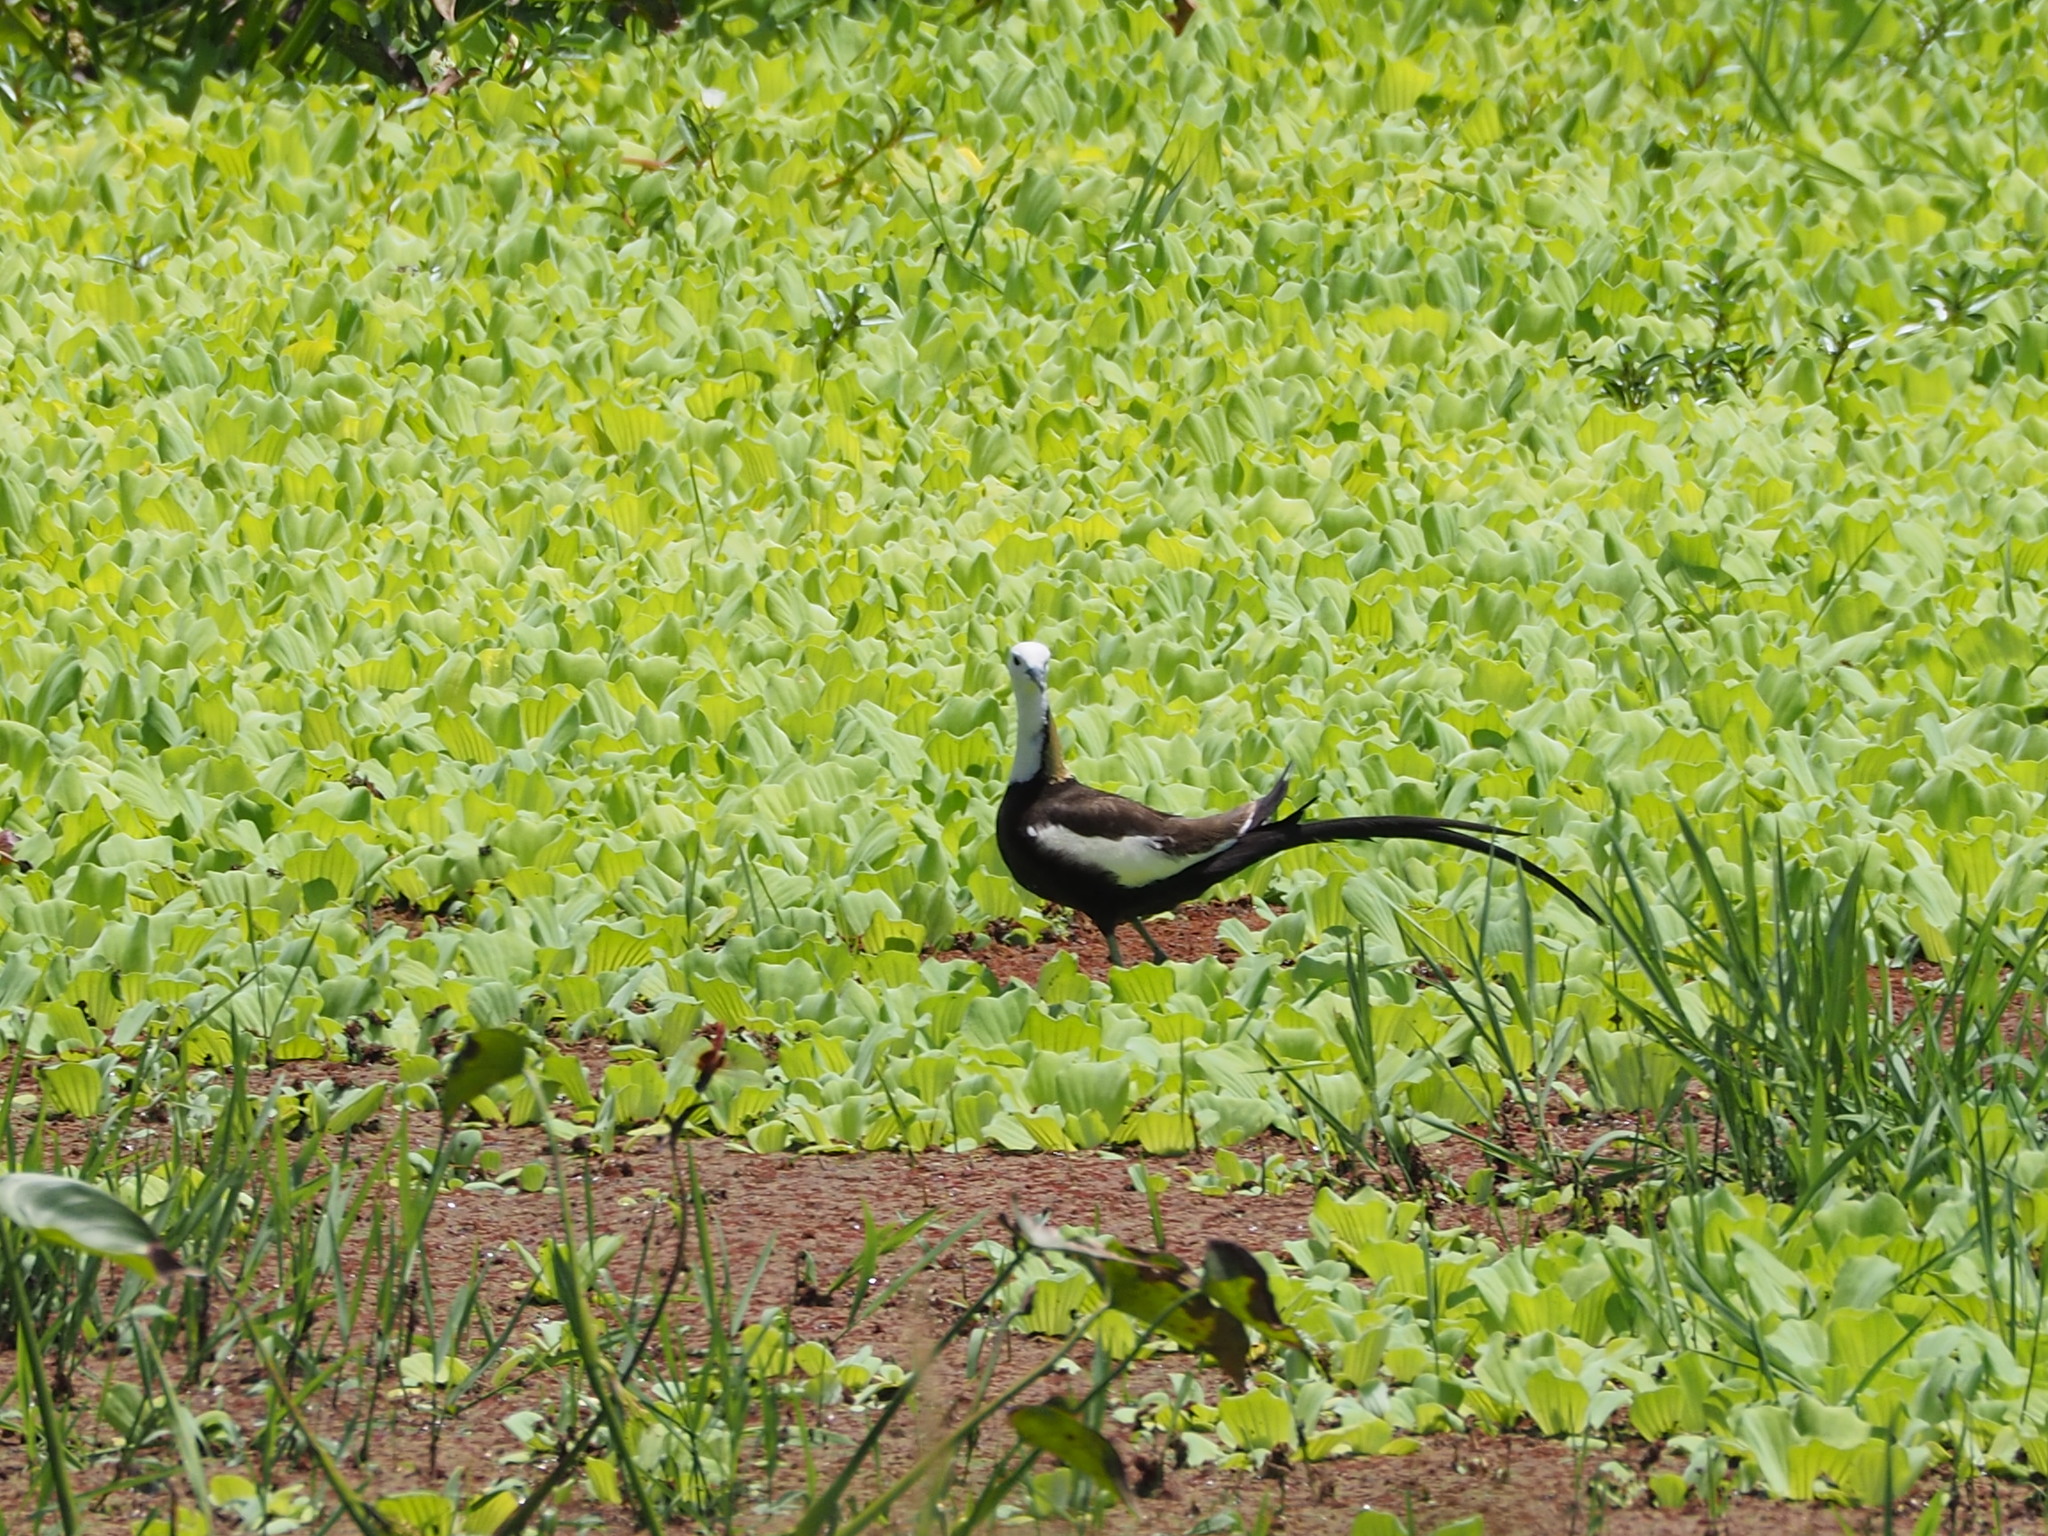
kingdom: Animalia
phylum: Chordata
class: Aves
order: Charadriiformes
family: Jacanidae
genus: Hydrophasianus
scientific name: Hydrophasianus chirurgus
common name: Pheasant-tailed jacana
